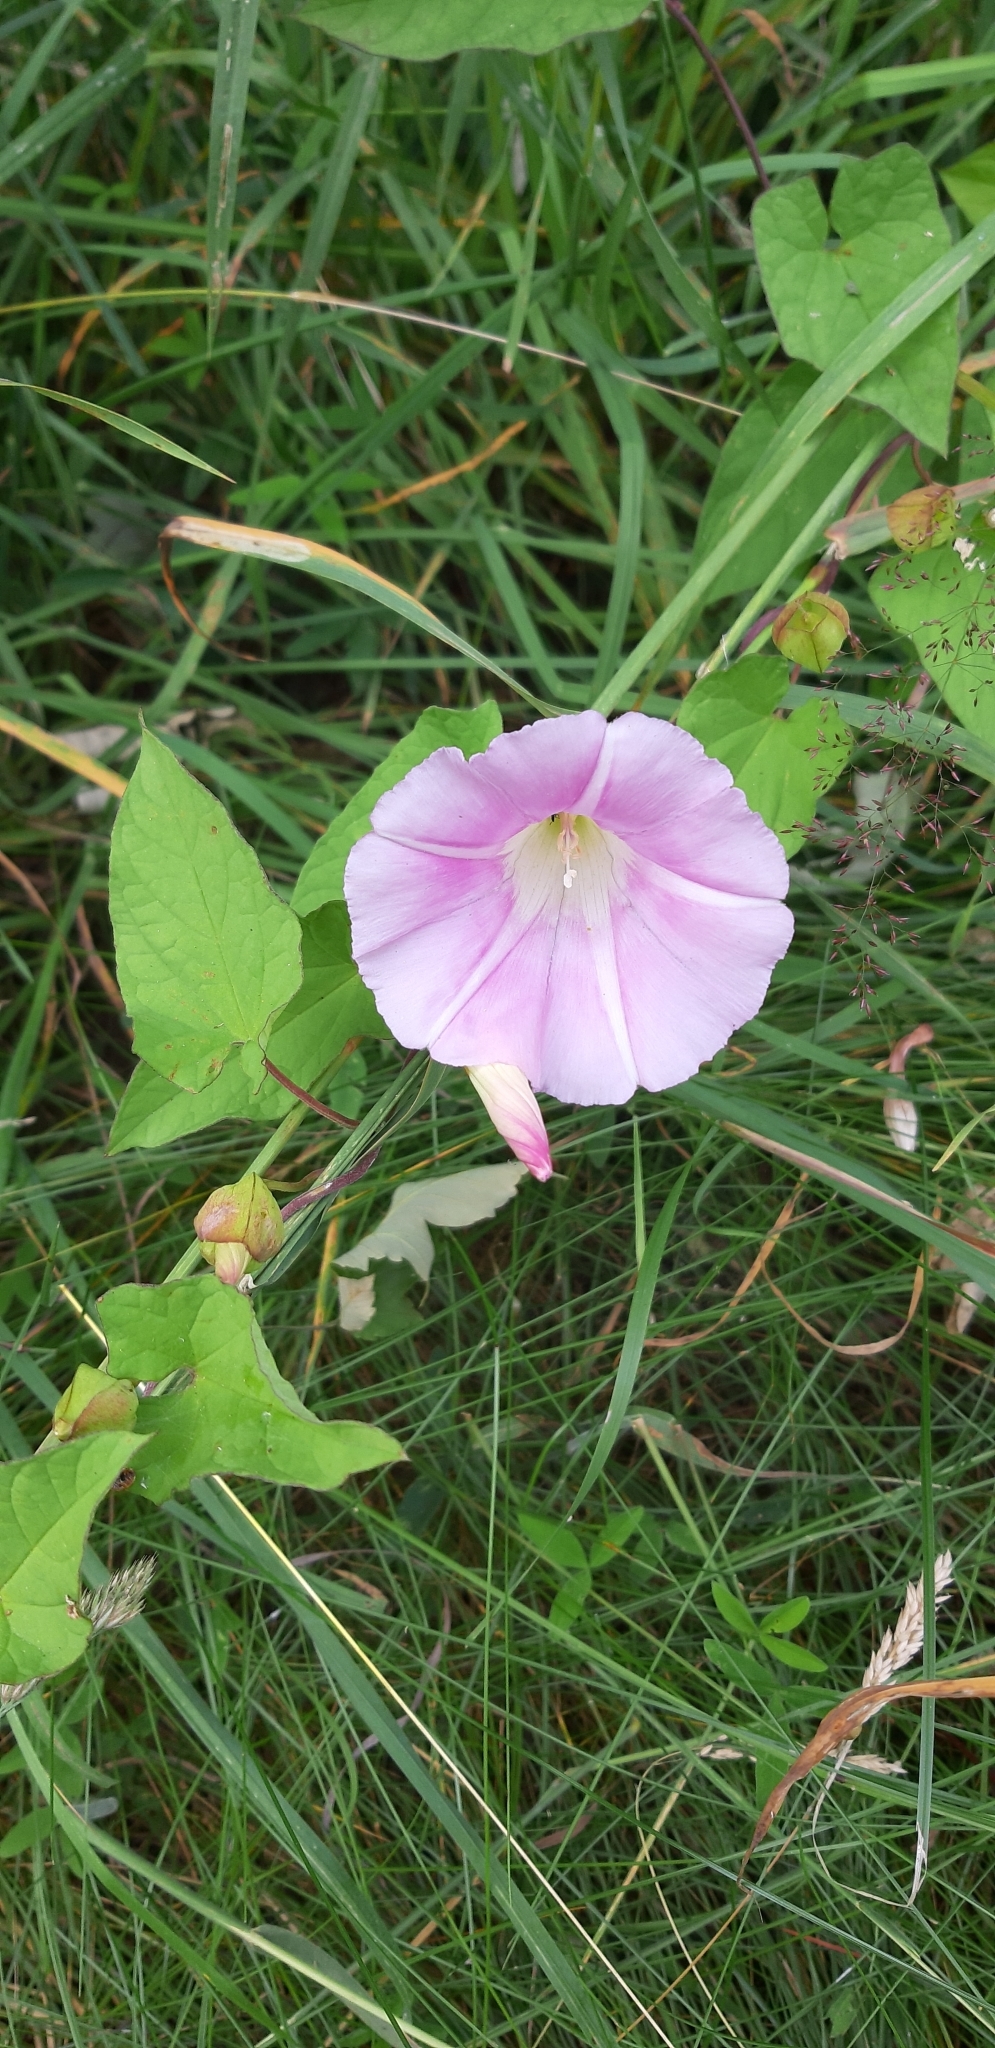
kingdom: Plantae
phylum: Tracheophyta
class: Magnoliopsida
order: Solanales
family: Convolvulaceae
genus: Calystegia
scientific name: Calystegia pulchra
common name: Hairy bindweed
